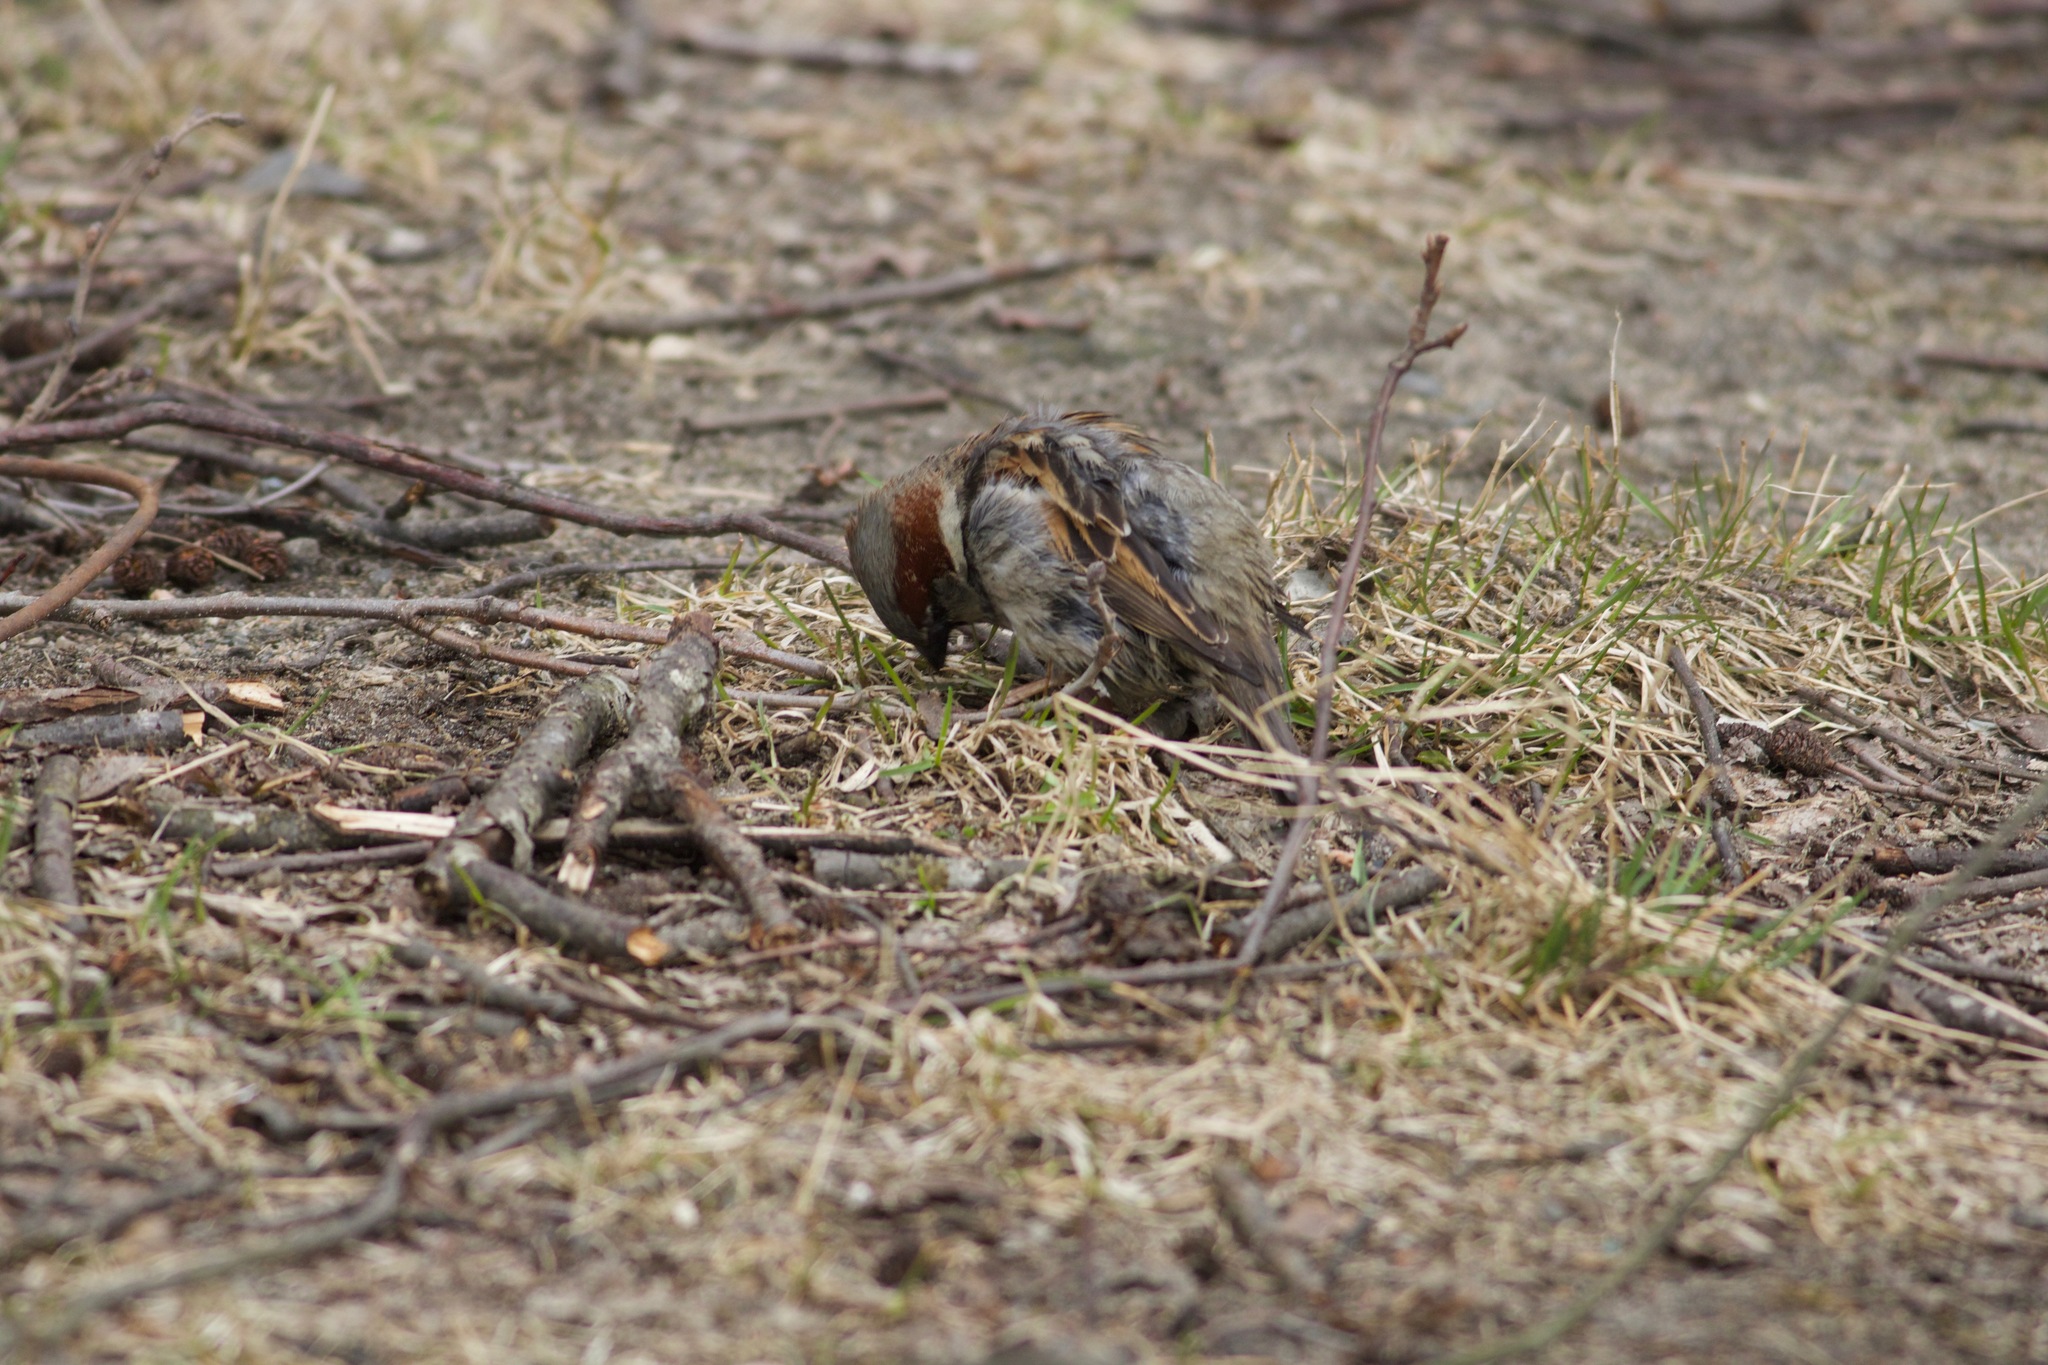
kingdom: Animalia
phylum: Chordata
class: Aves
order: Passeriformes
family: Passeridae
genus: Passer
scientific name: Passer domesticus
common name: House sparrow
